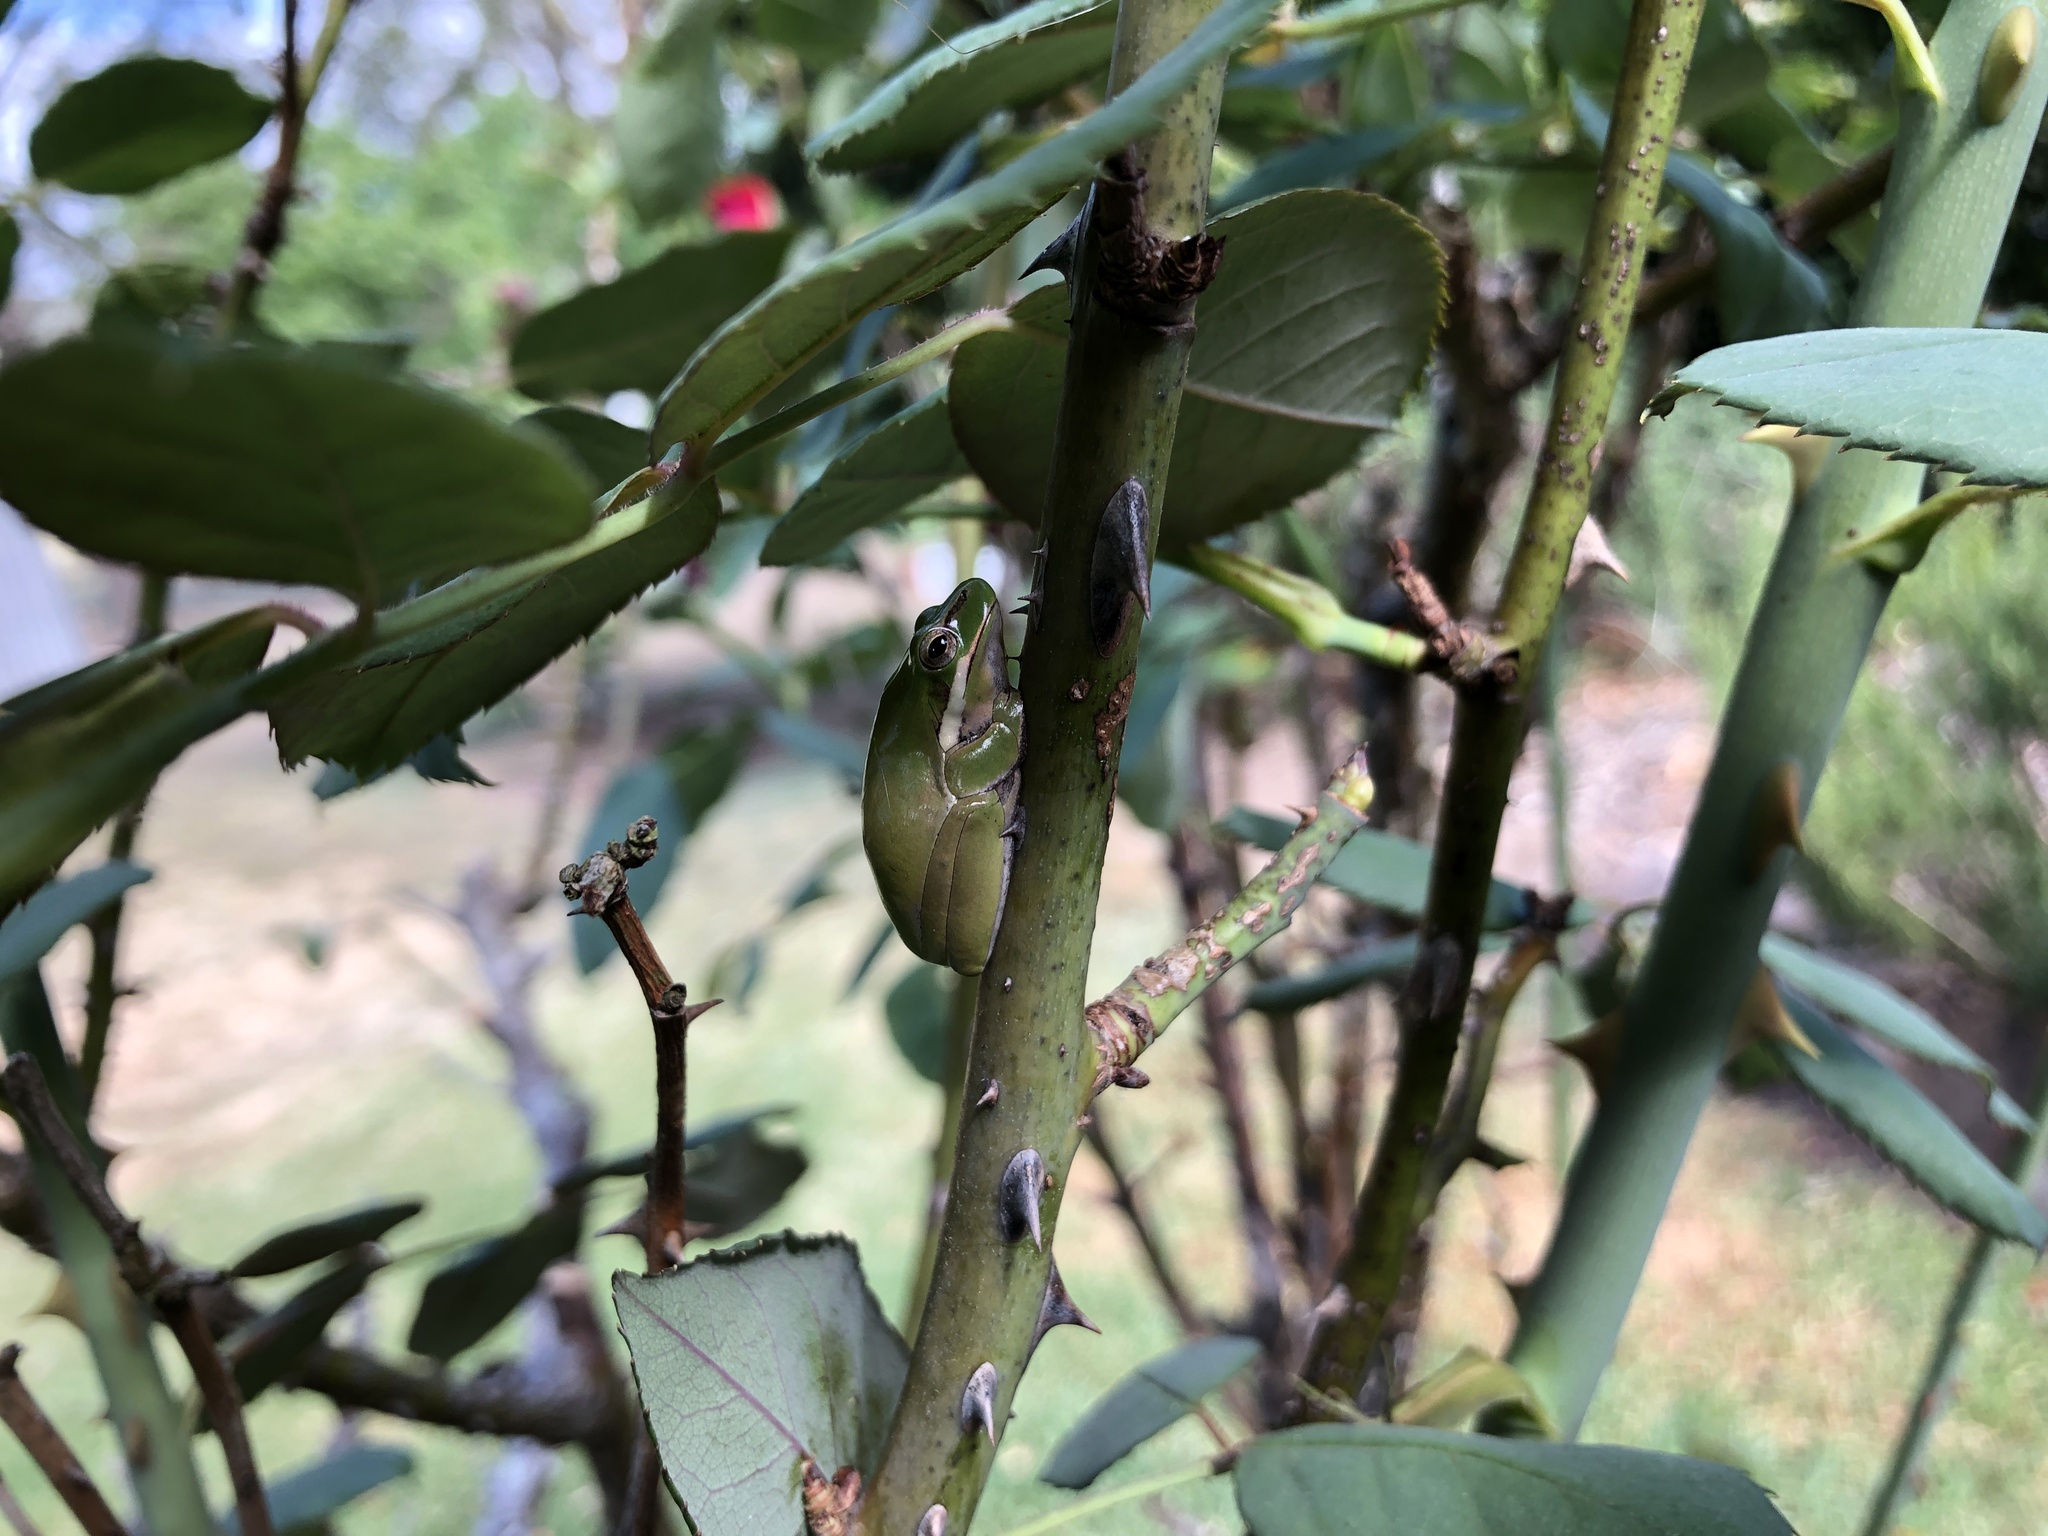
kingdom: Animalia
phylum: Chordata
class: Amphibia
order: Anura
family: Pelodryadidae
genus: Litoria
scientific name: Litoria fallax
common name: Eastern dwarf treefrog
